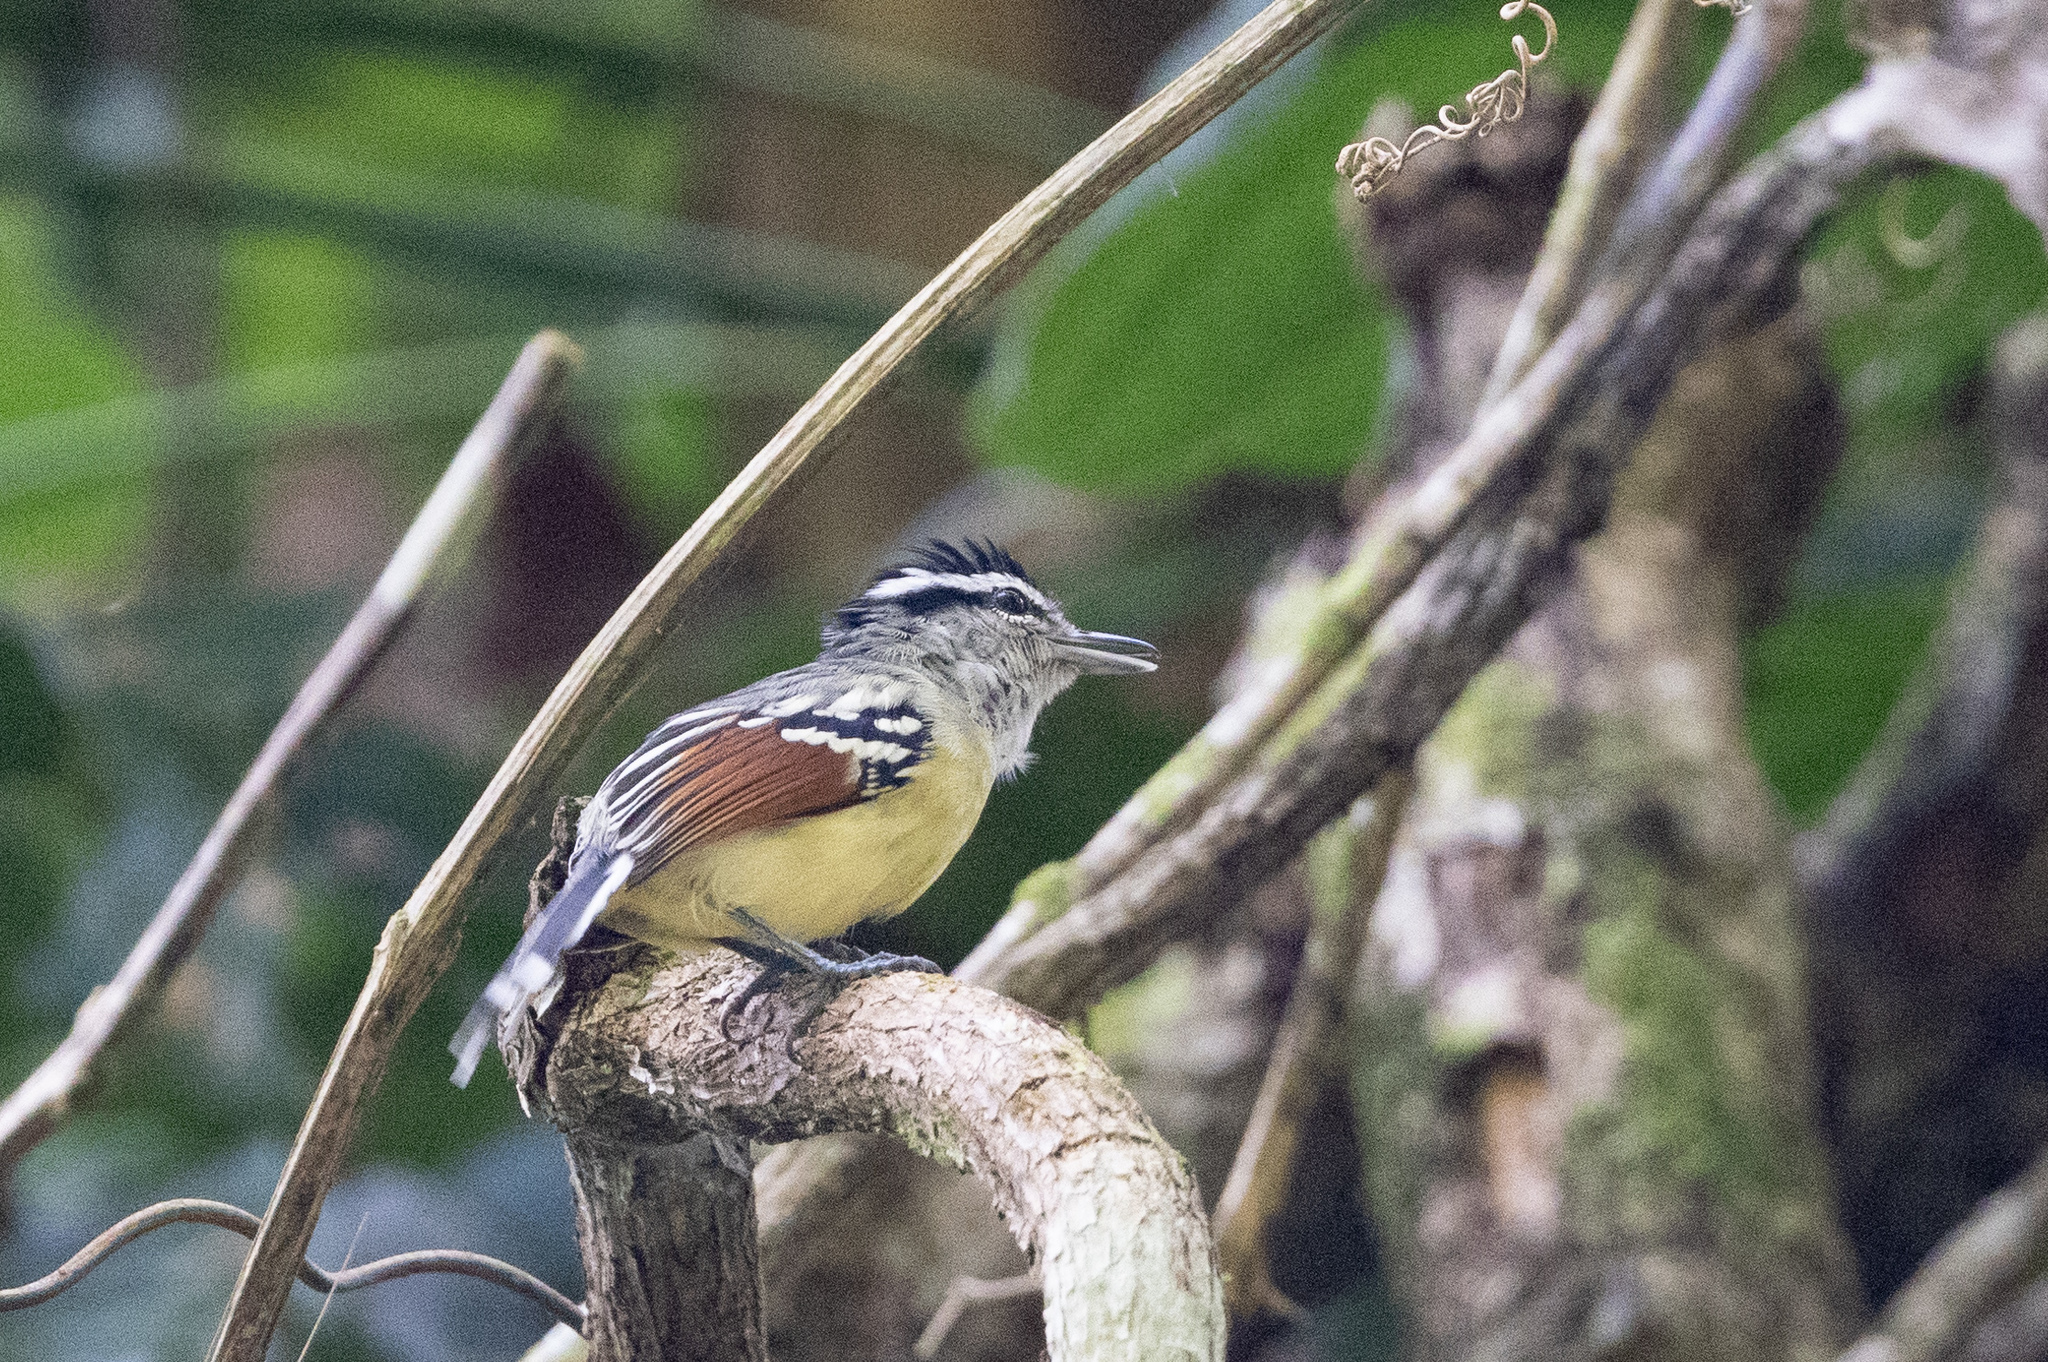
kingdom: Animalia
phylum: Chordata
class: Aves
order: Passeriformes
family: Thamnophilidae
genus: Herpsilochmus
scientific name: Herpsilochmus frater
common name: Rusty-winged antwren
